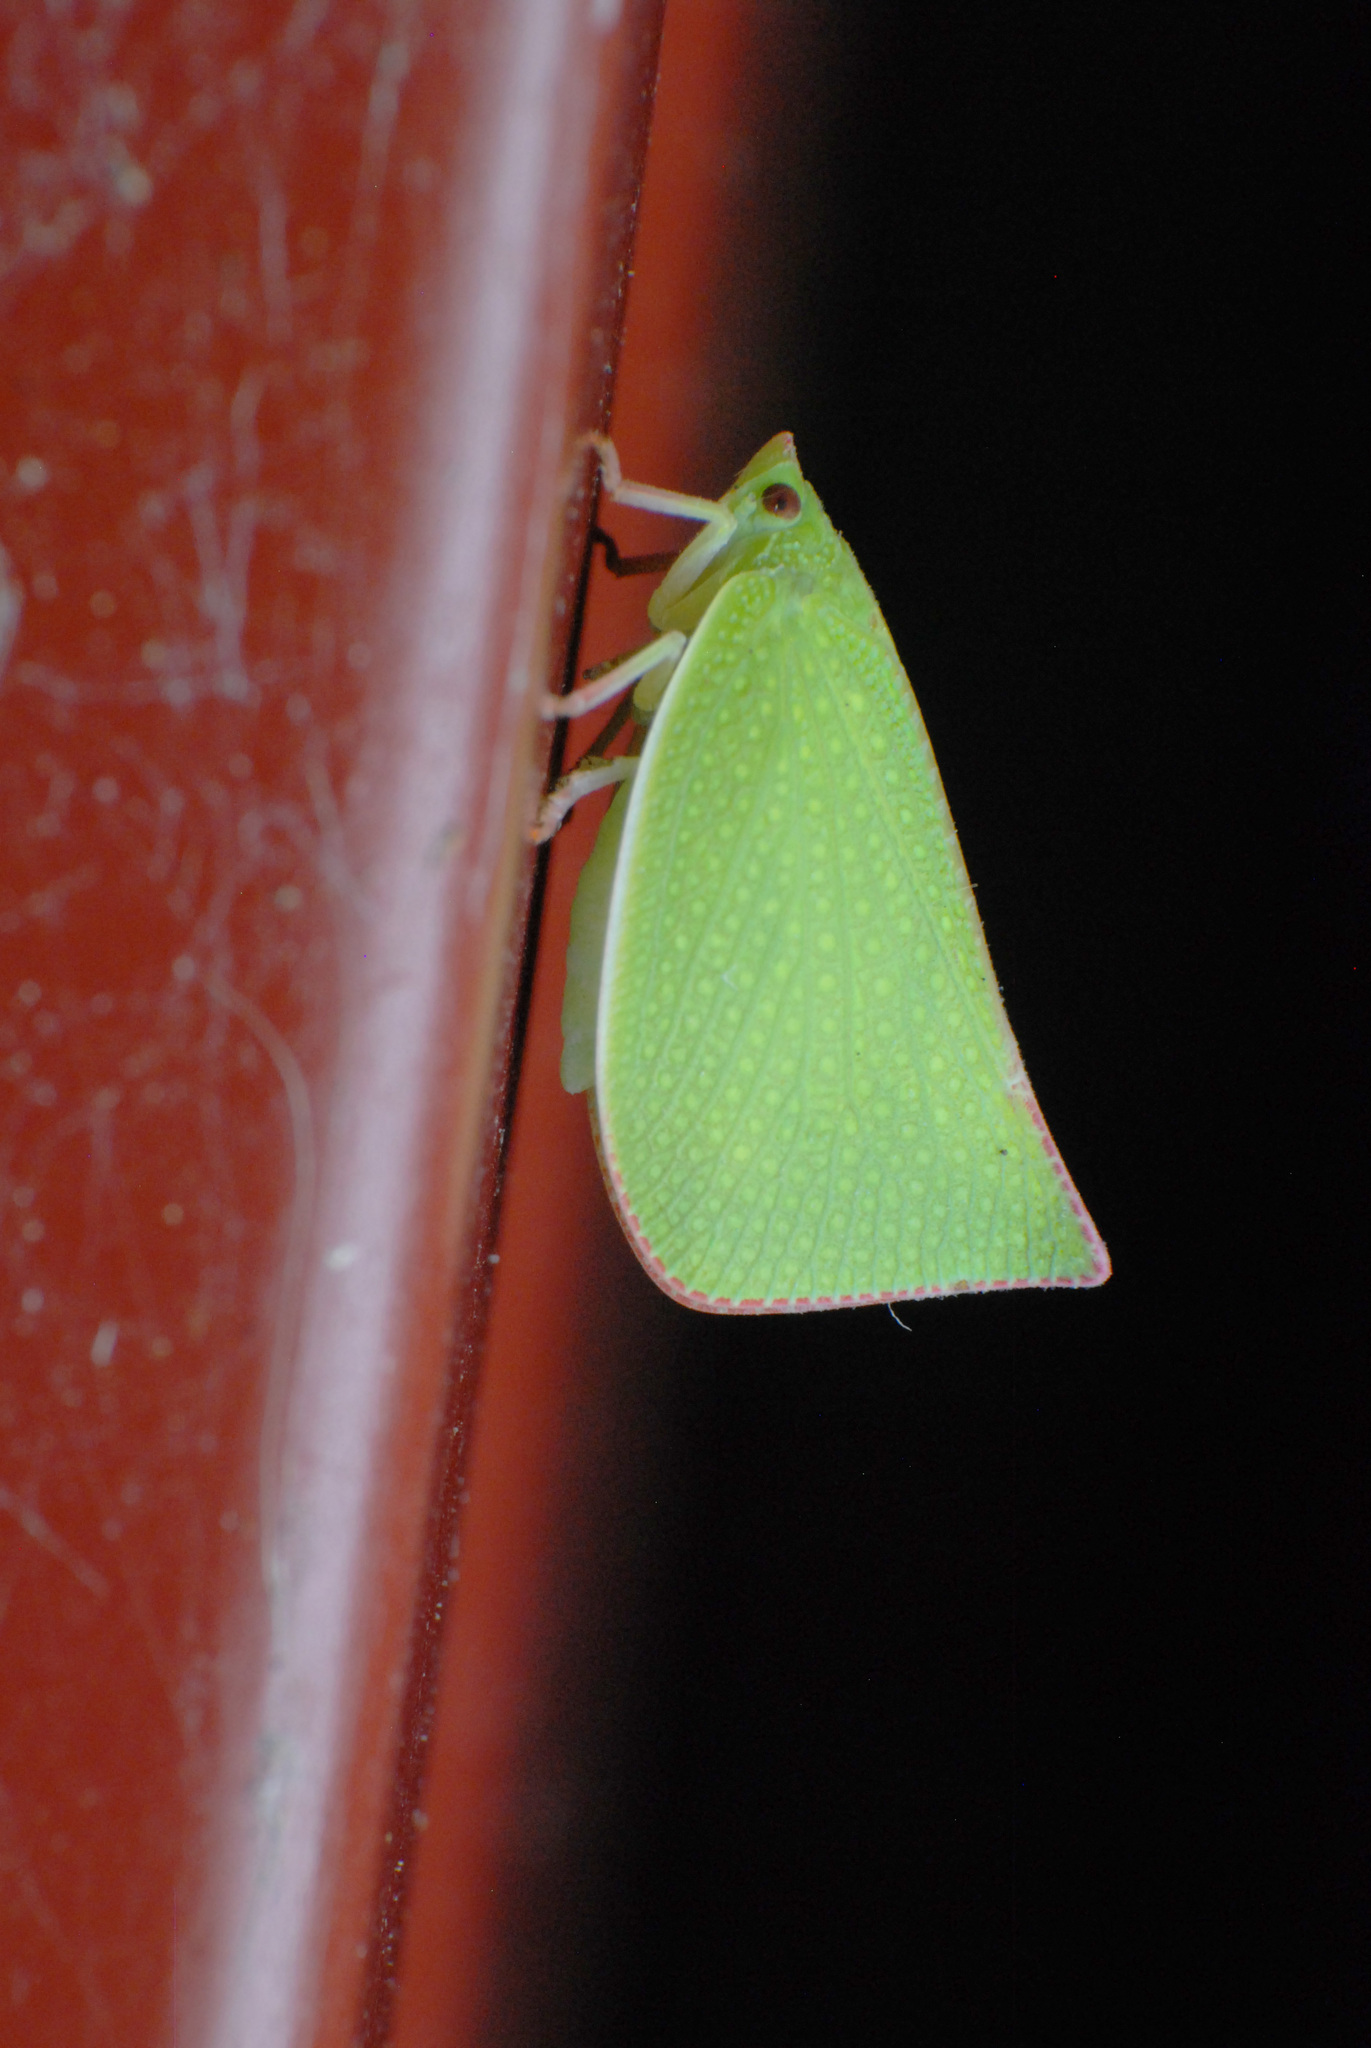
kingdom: Animalia
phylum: Arthropoda
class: Insecta
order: Hemiptera
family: Flatidae
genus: Siphanta
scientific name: Siphanta
